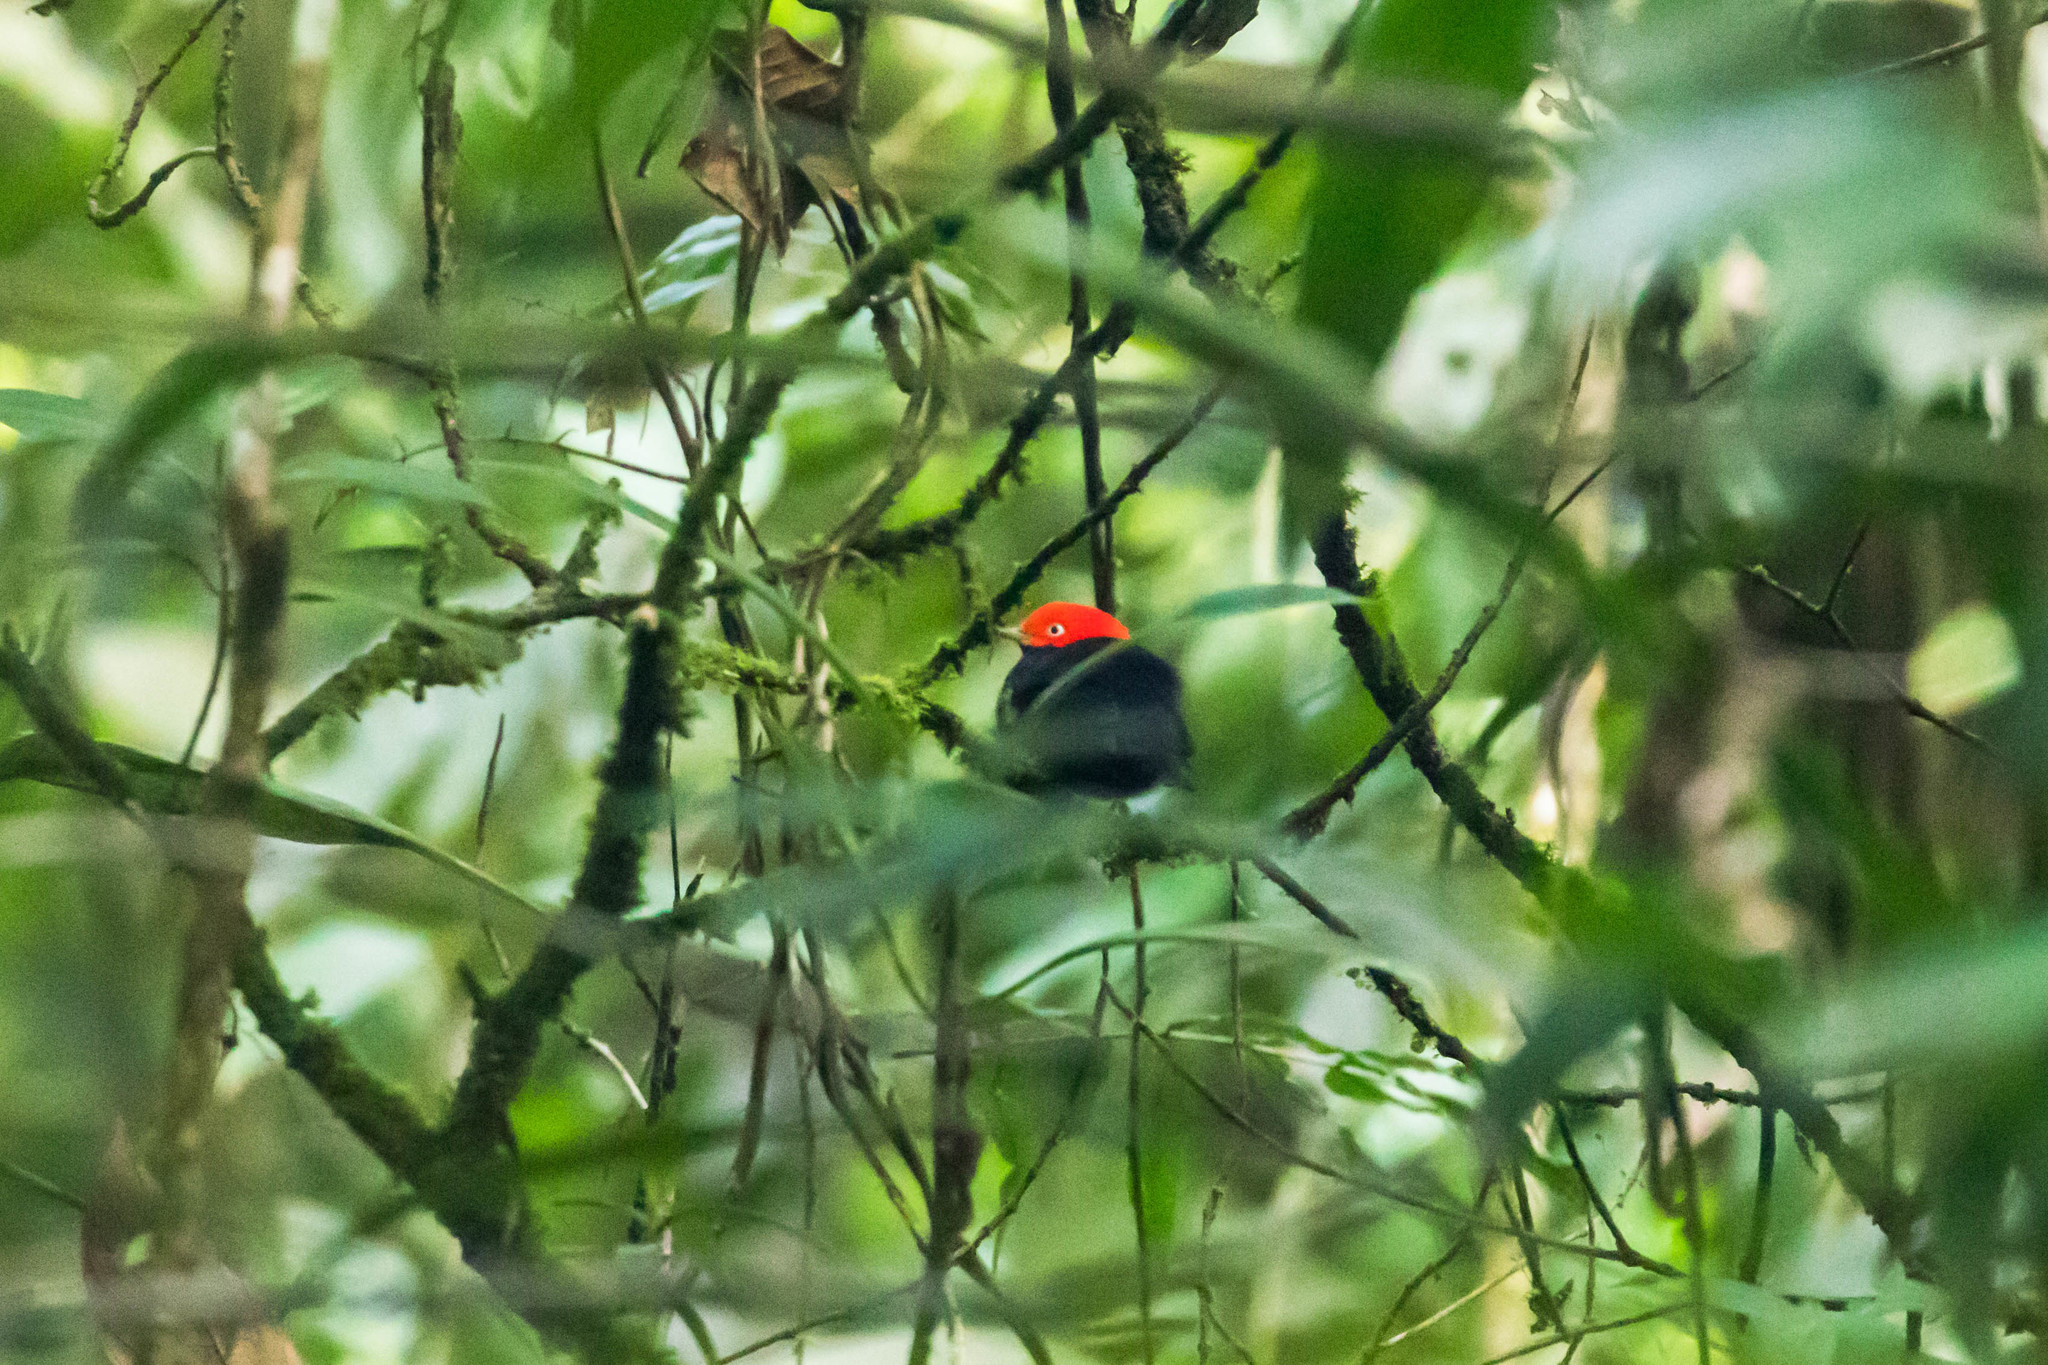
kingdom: Animalia
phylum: Chordata
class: Aves
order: Passeriformes
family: Pipridae
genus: Pipra
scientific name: Pipra mentalis
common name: Red-capped manakin
